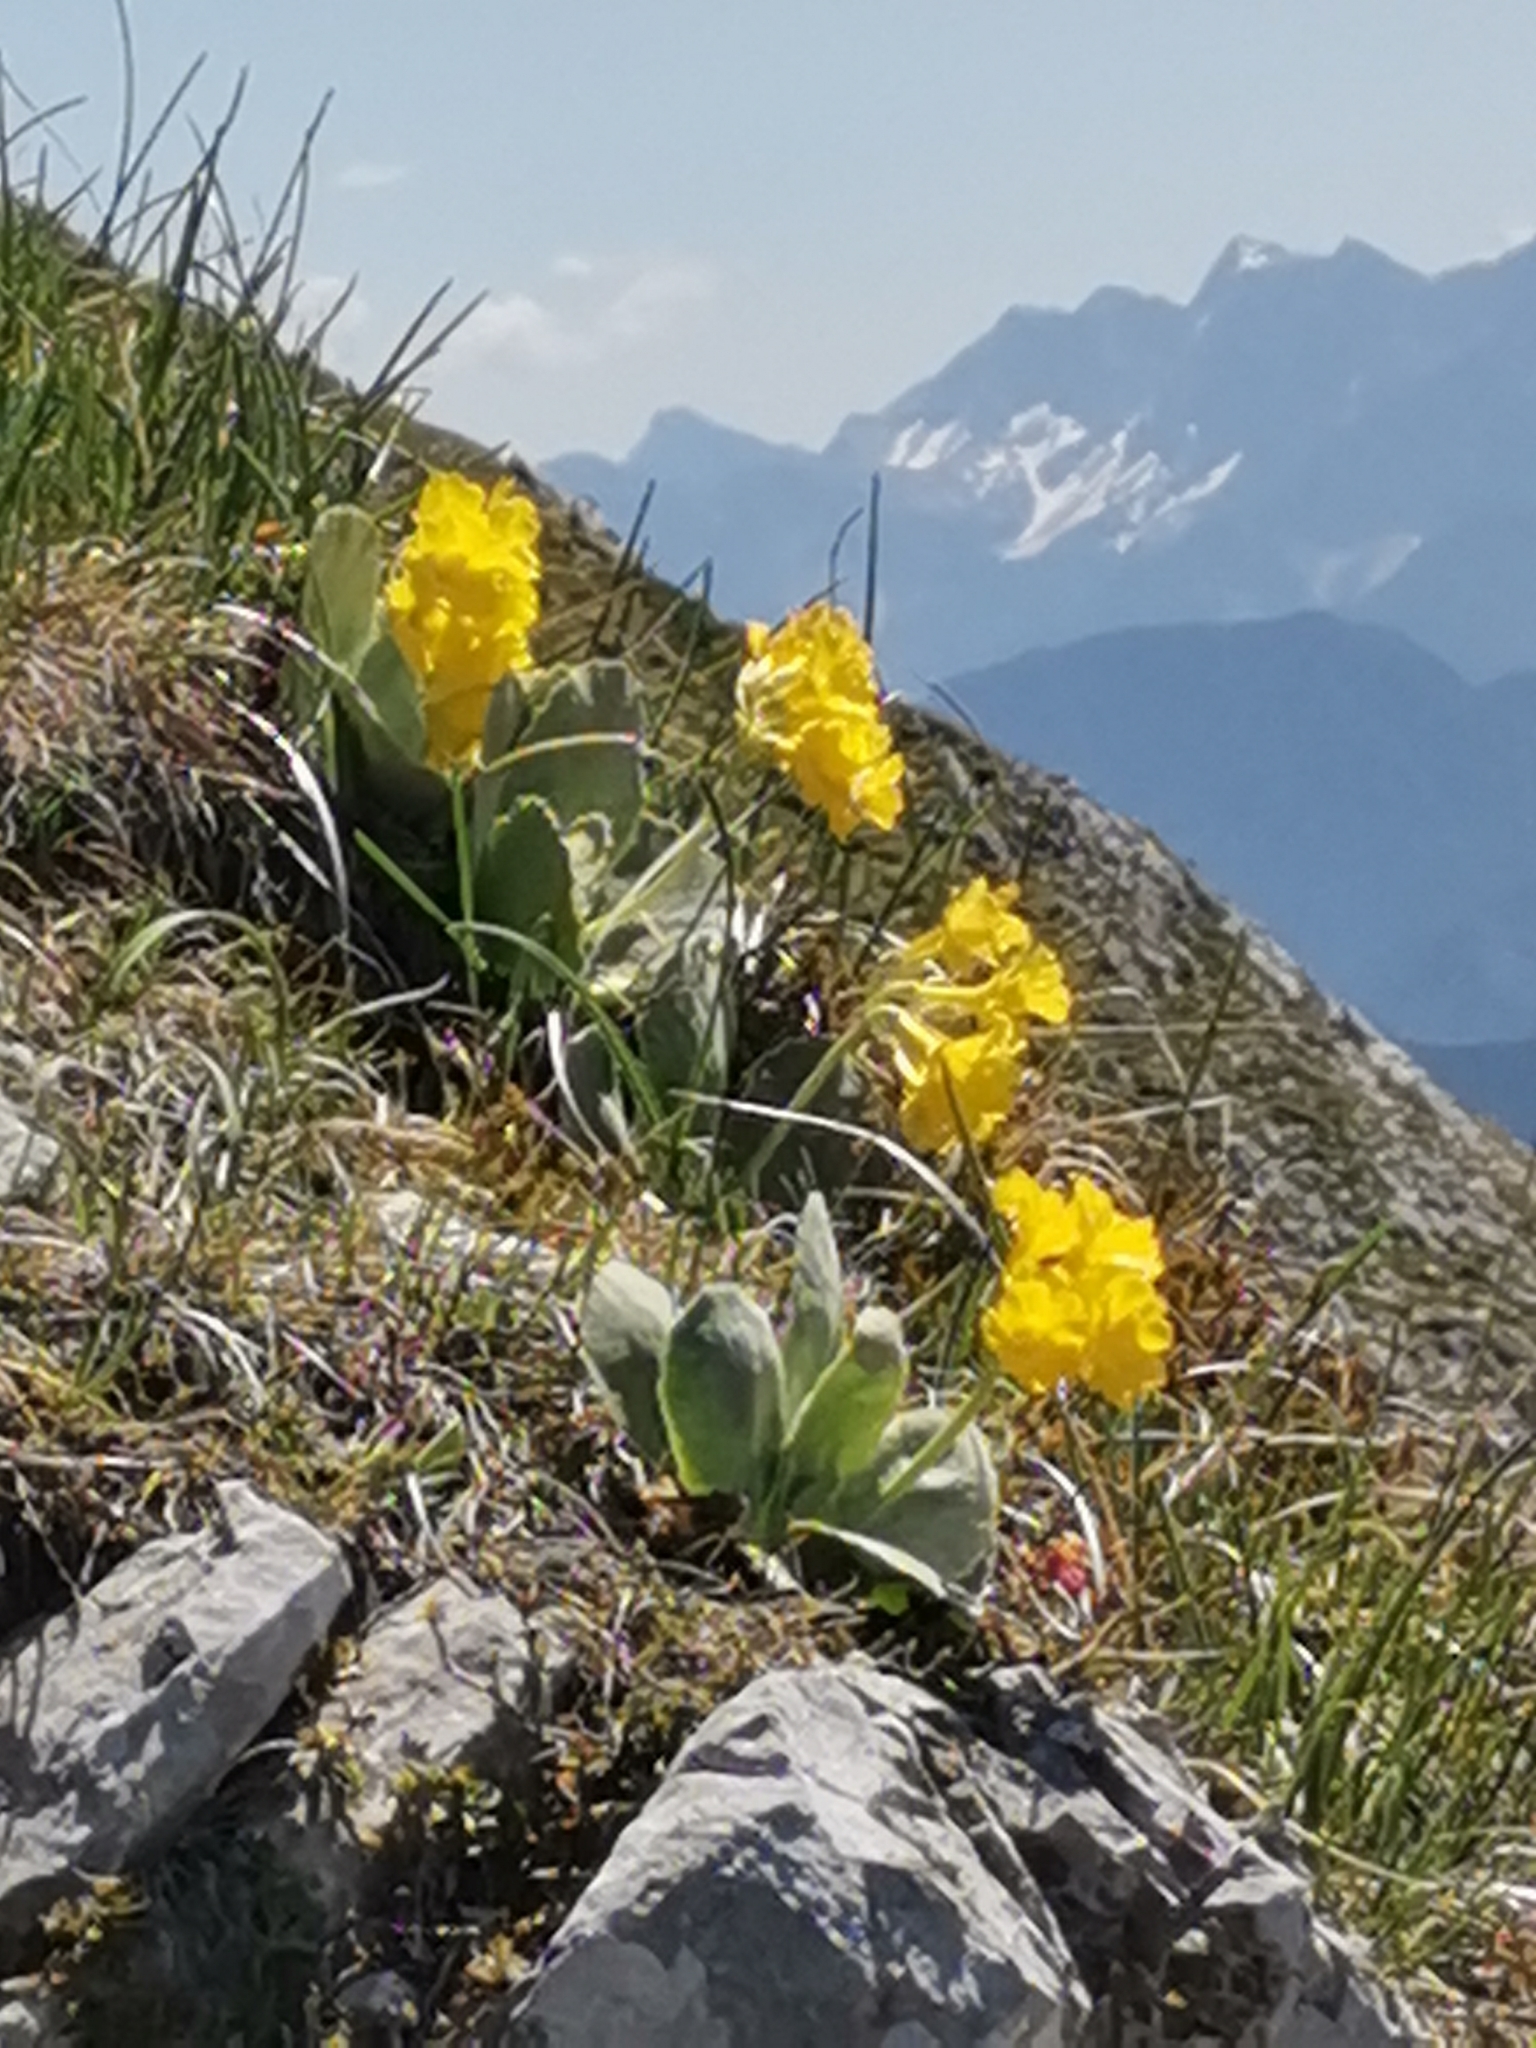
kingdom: Plantae
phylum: Tracheophyta
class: Magnoliopsida
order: Ericales
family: Primulaceae
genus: Primula
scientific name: Primula auricula
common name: Auricula
